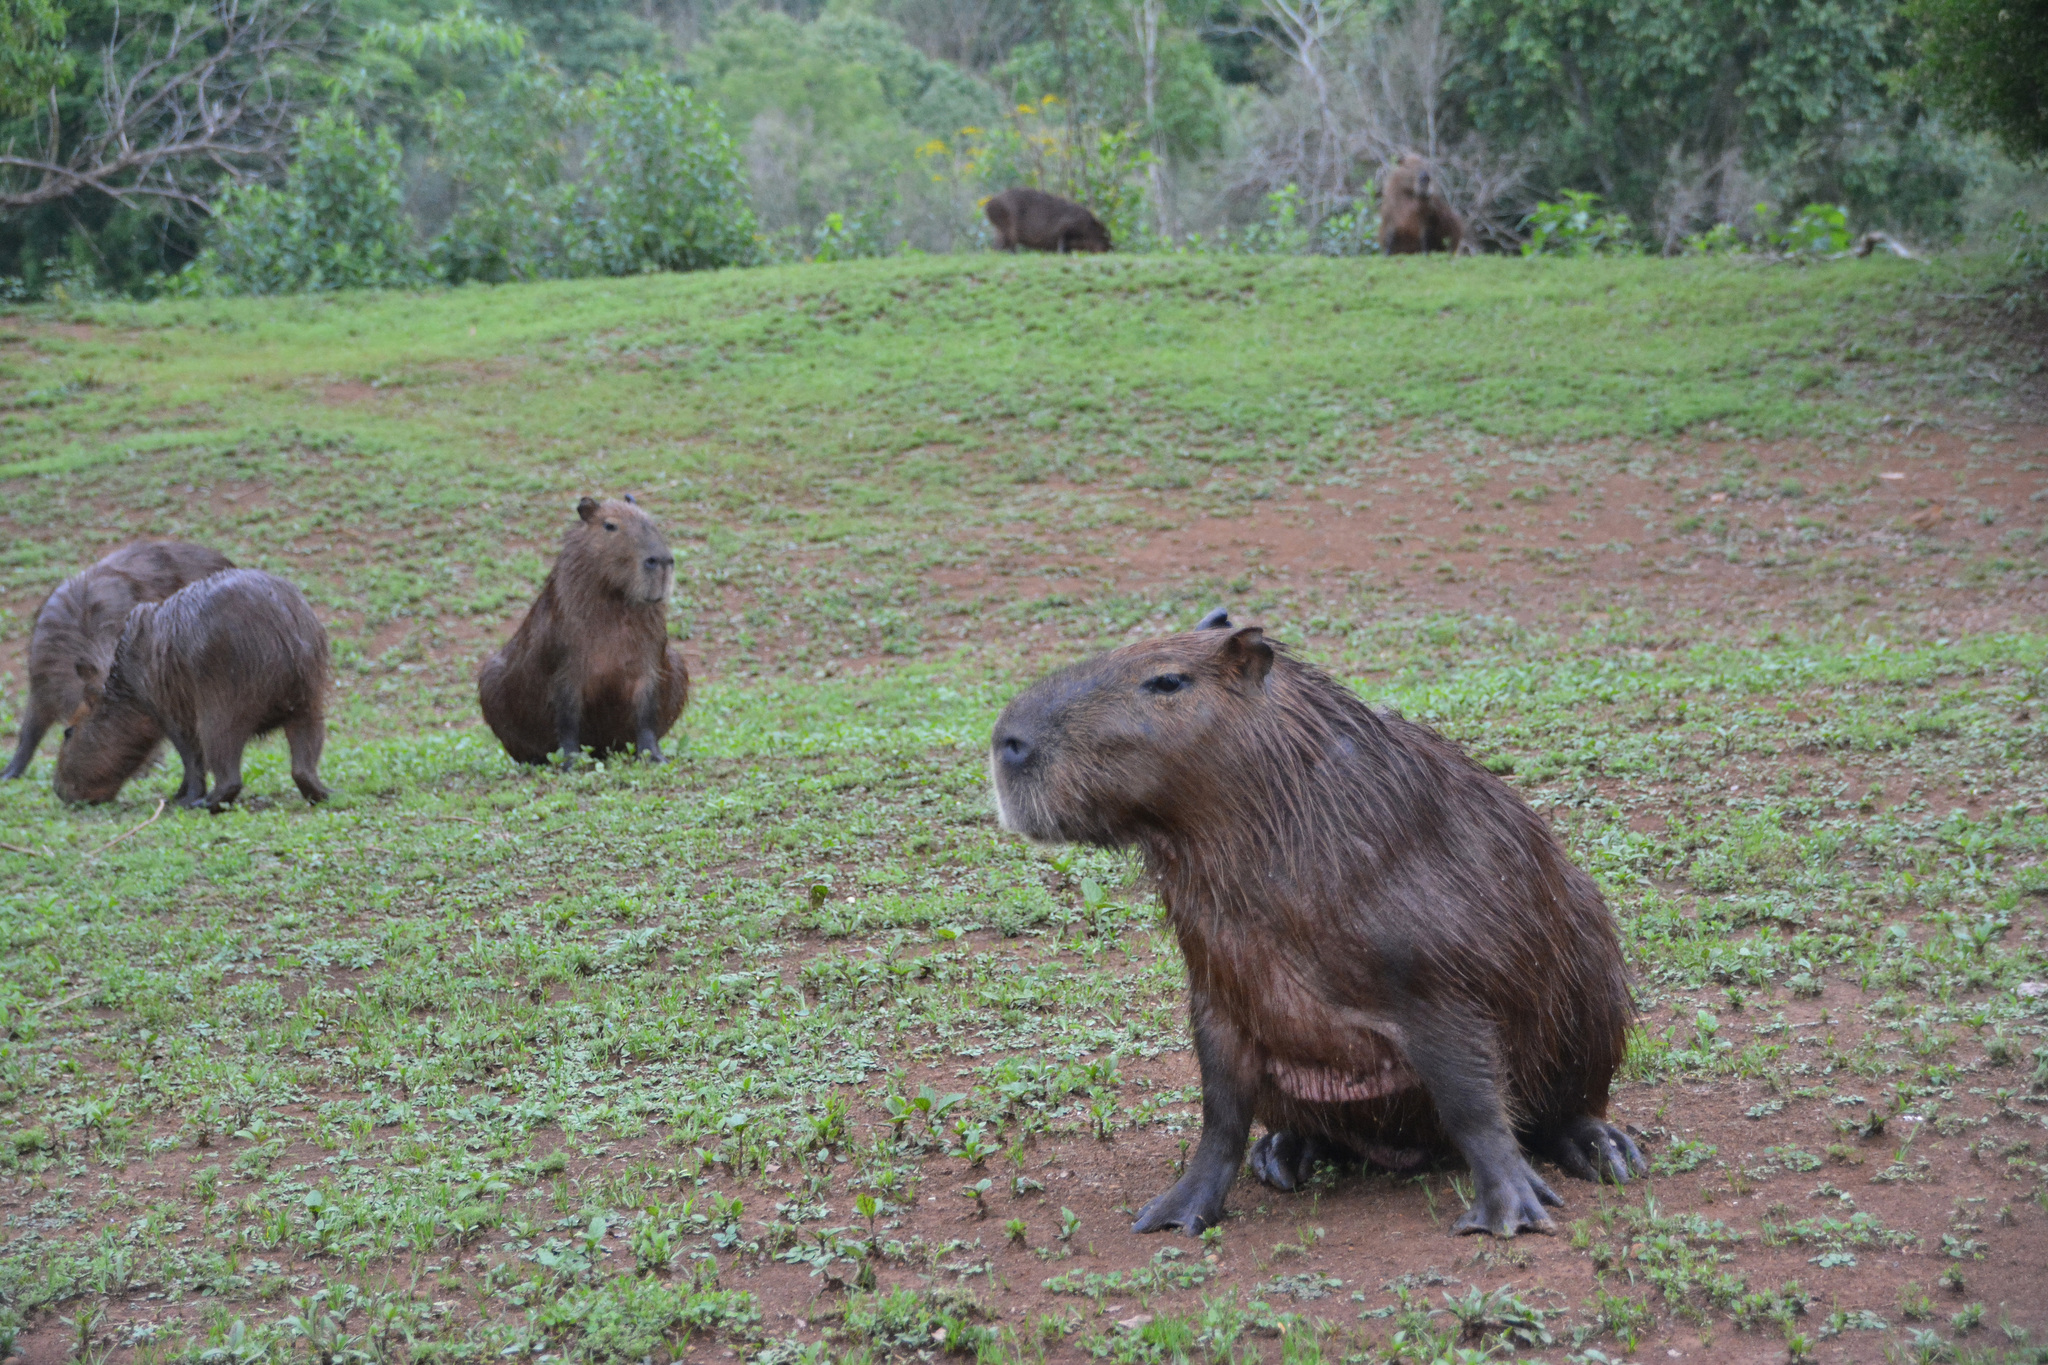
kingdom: Animalia
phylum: Chordata
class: Mammalia
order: Rodentia
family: Caviidae
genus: Hydrochoerus
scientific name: Hydrochoerus hydrochaeris
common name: Capybara
